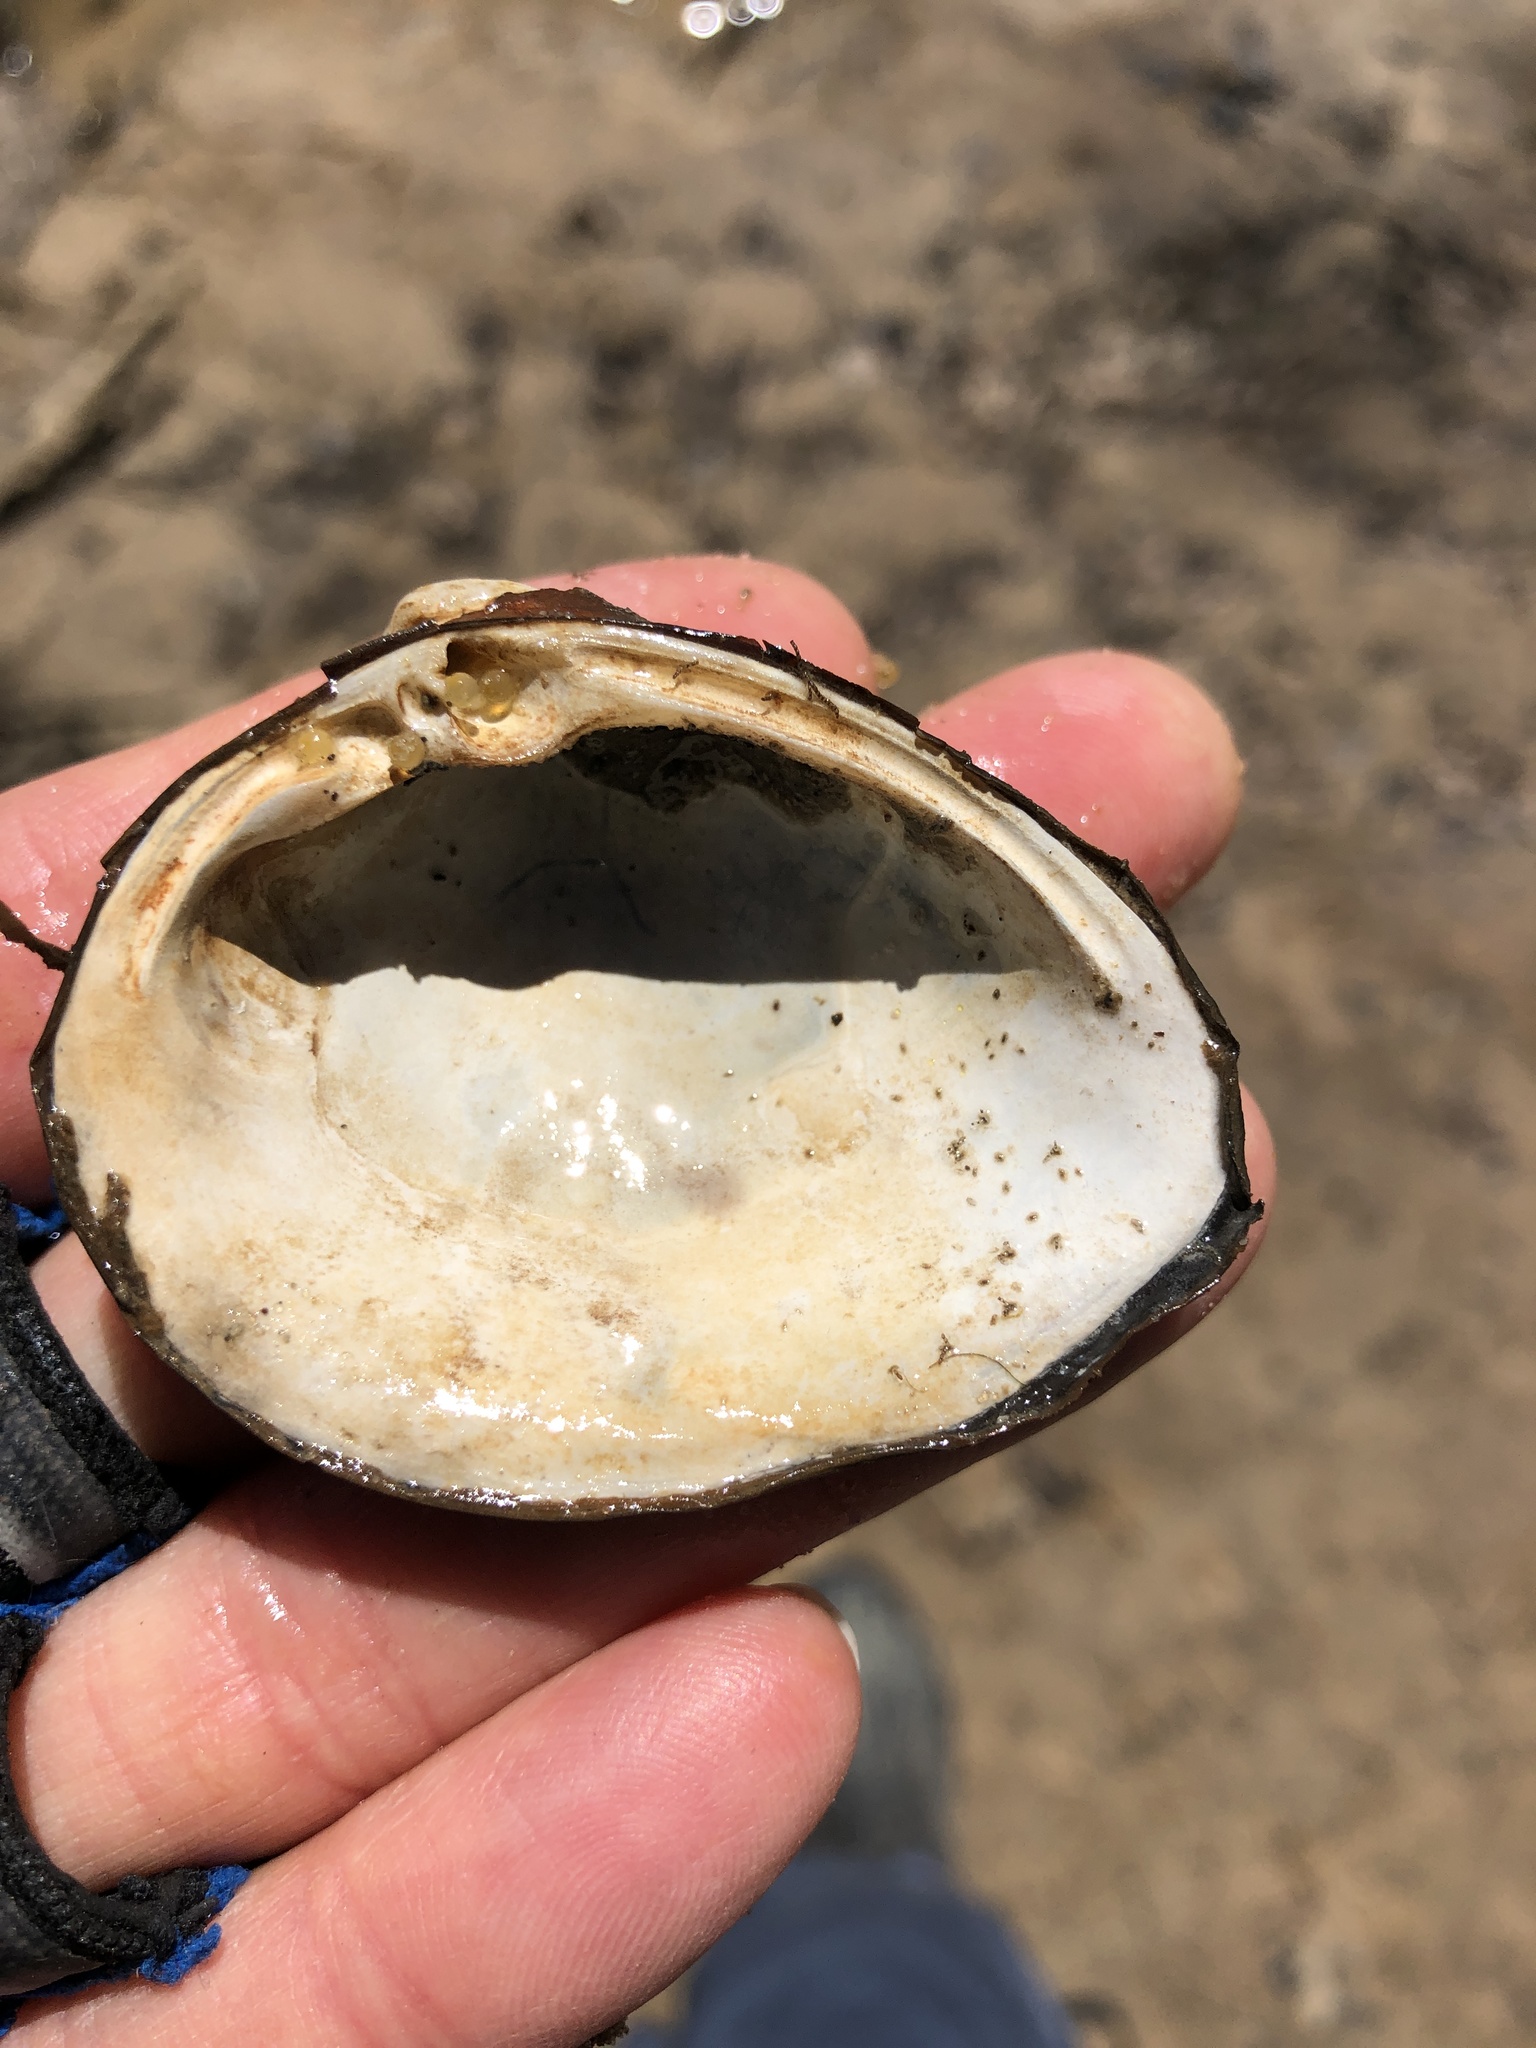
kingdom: Animalia
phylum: Mollusca
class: Bivalvia
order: Venerida
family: Mactridae
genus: Rangia
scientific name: Rangia cuneata
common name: Atlantic rangia
